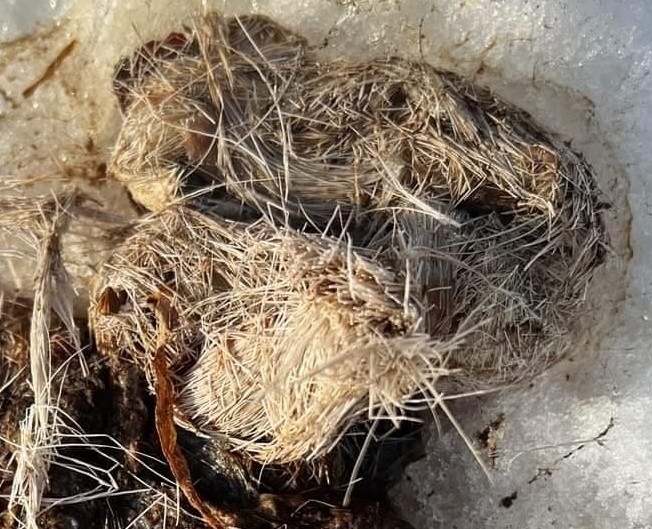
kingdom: Animalia
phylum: Chordata
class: Mammalia
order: Artiodactyla
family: Cervidae
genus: Odocoileus
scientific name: Odocoileus virginianus
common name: White-tailed deer
